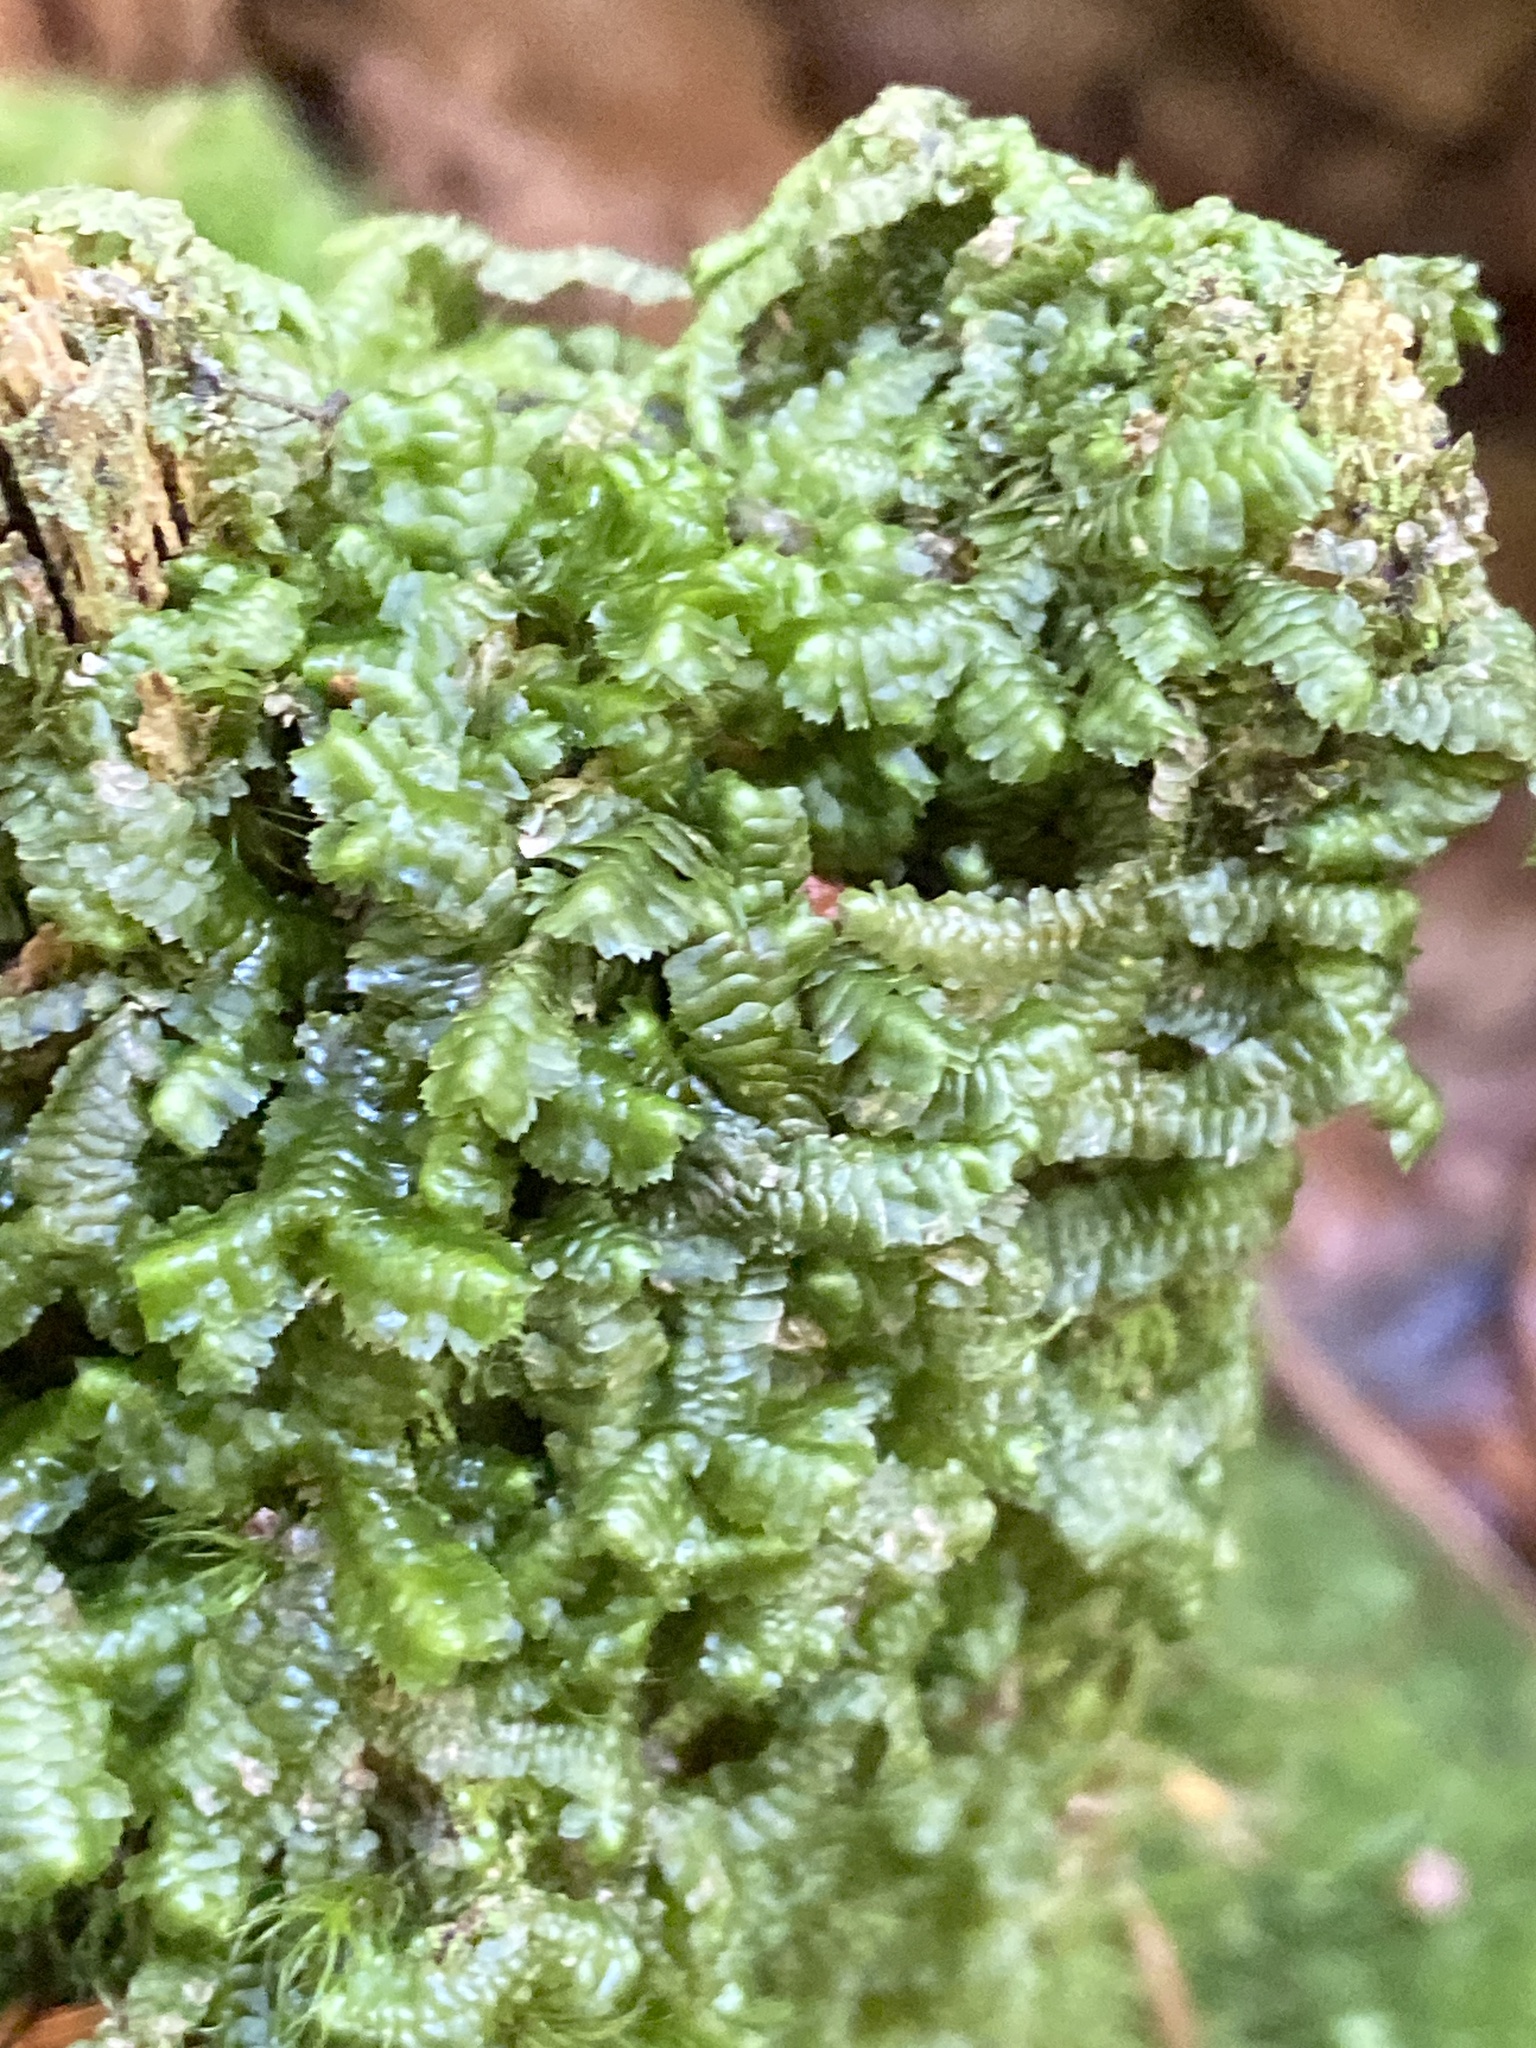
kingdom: Plantae
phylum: Marchantiophyta
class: Jungermanniopsida
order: Jungermanniales
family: Lepidoziaceae
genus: Bazzania
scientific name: Bazzania trilobata
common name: Three-lobed whipwort
